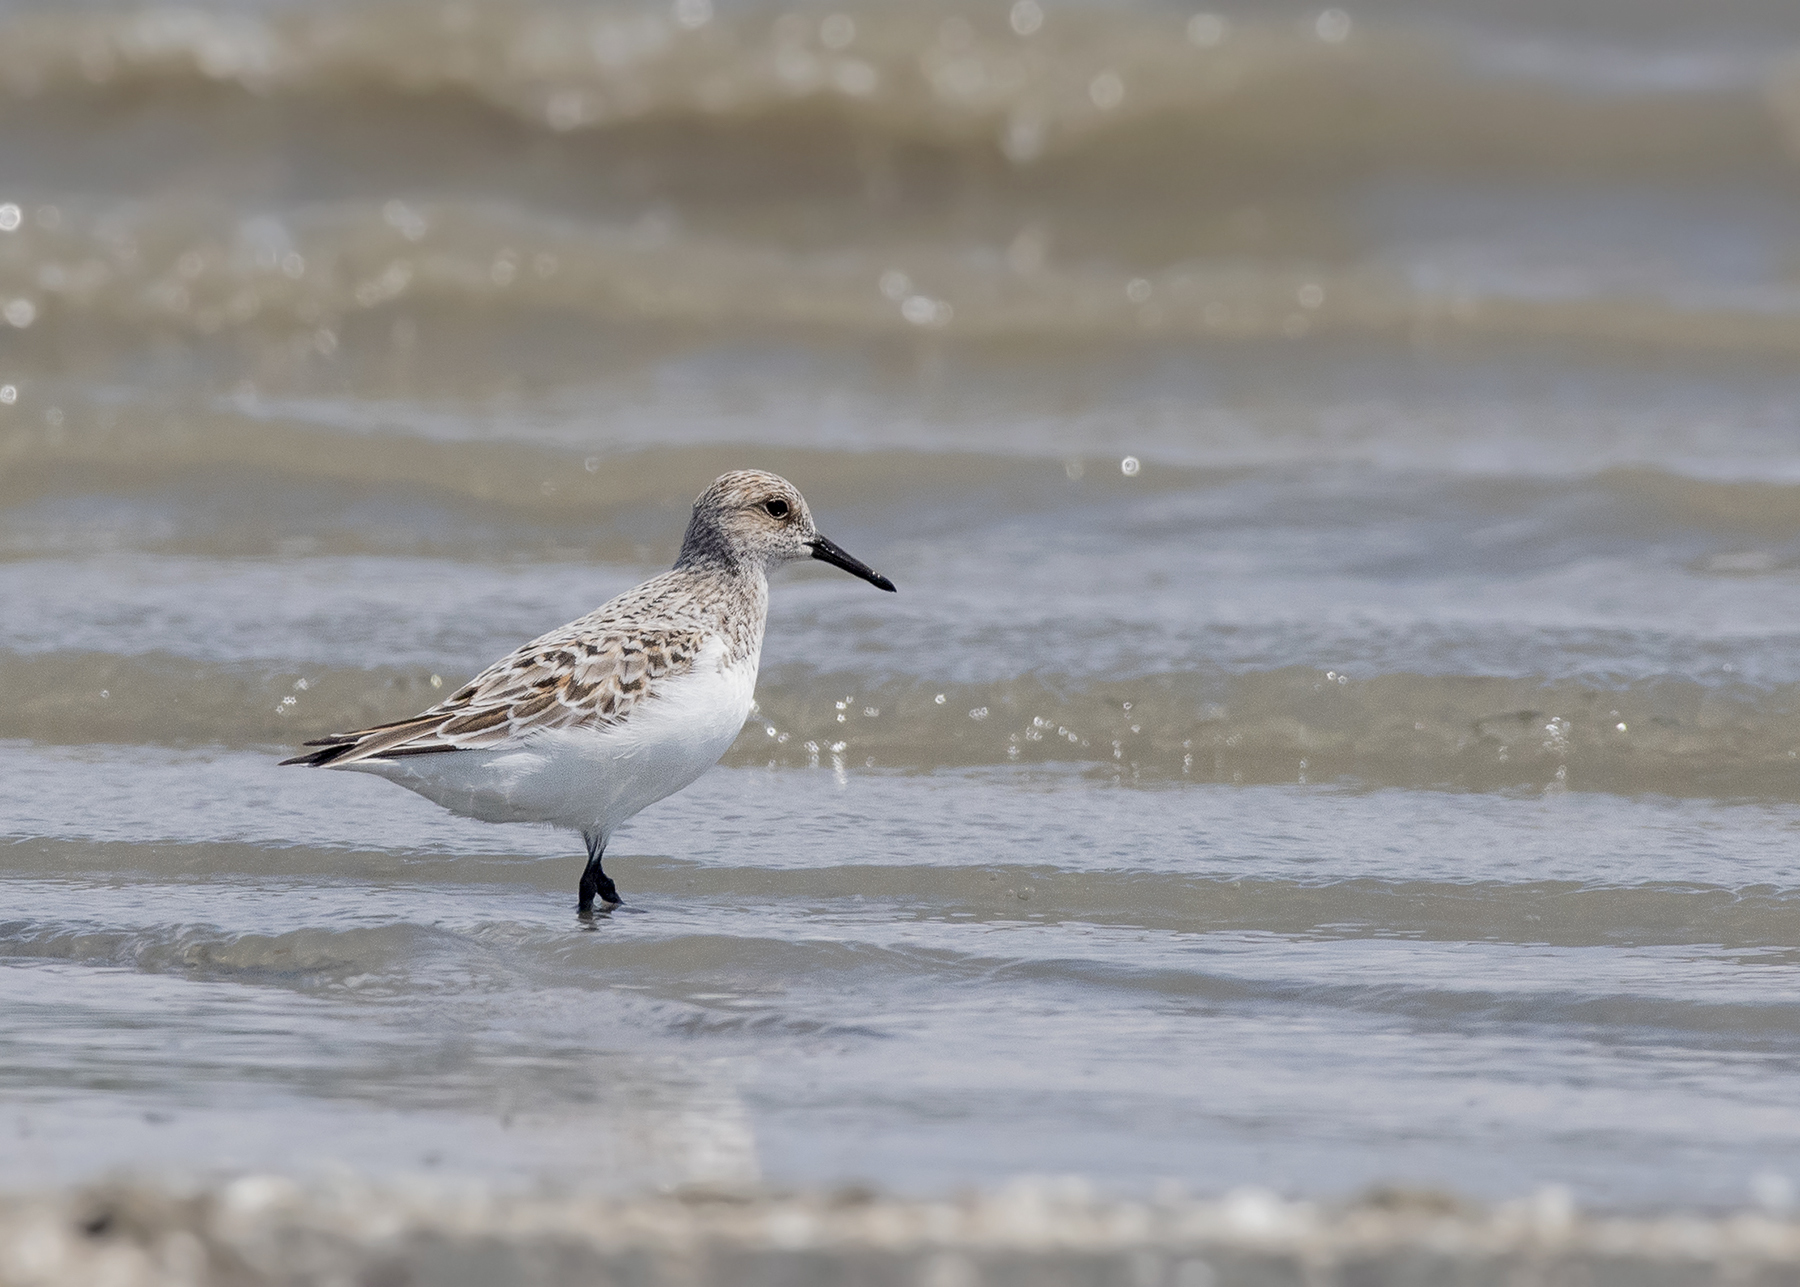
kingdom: Animalia
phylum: Chordata
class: Aves
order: Charadriiformes
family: Scolopacidae
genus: Calidris
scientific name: Calidris alba
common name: Sanderling
